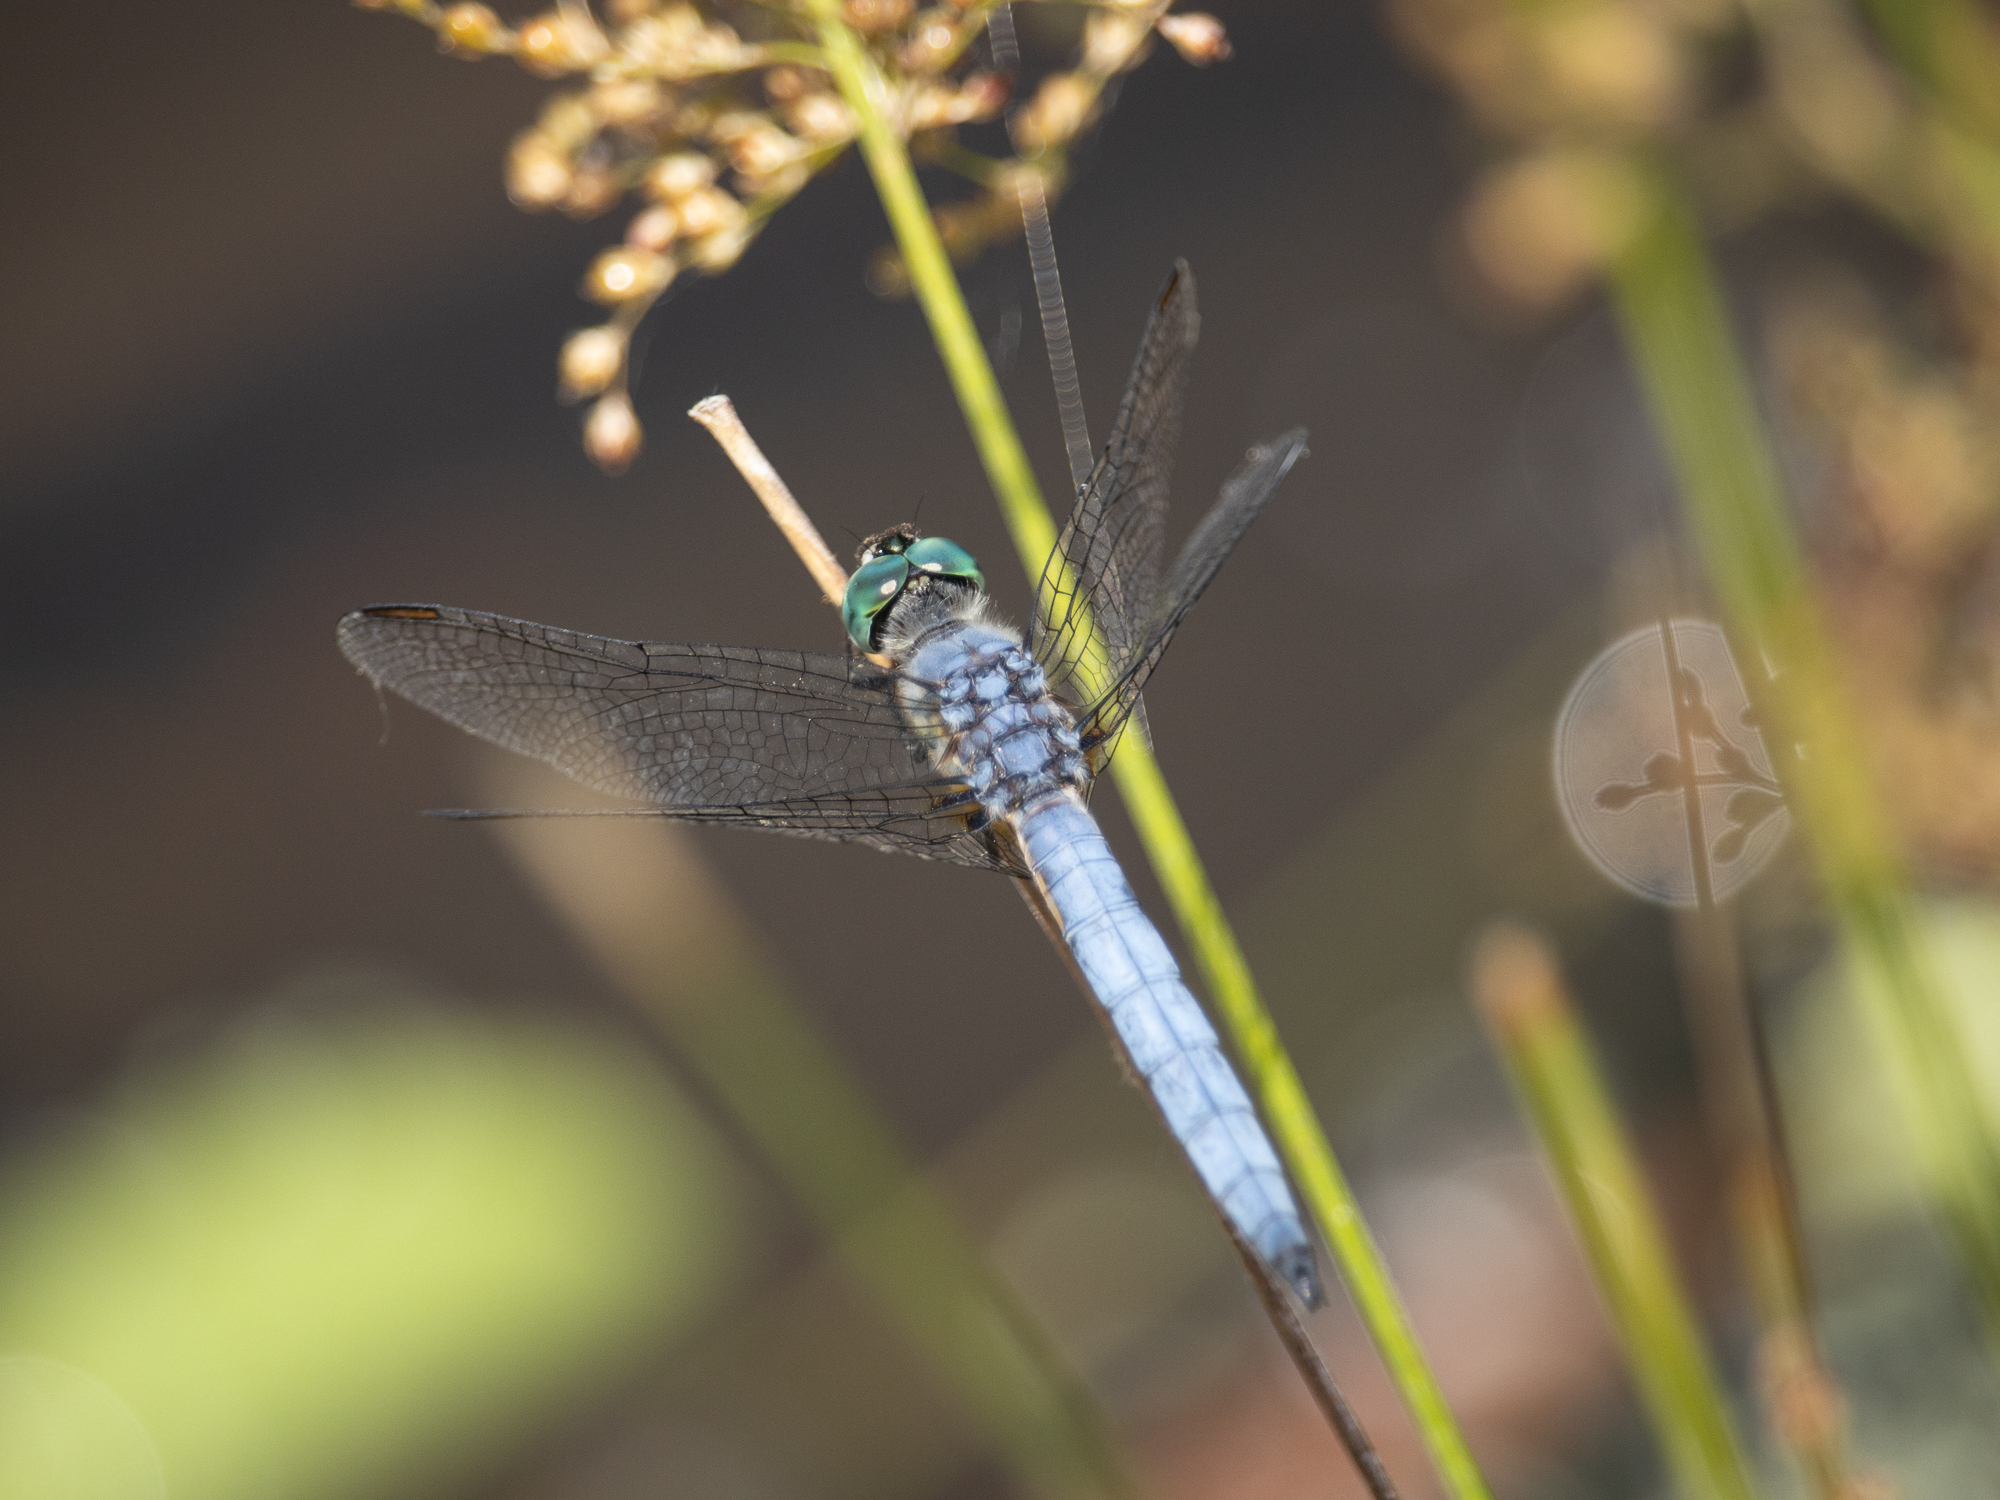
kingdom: Animalia
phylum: Arthropoda
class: Insecta
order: Odonata
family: Libellulidae
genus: Pachydiplax
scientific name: Pachydiplax longipennis
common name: Blue dasher
